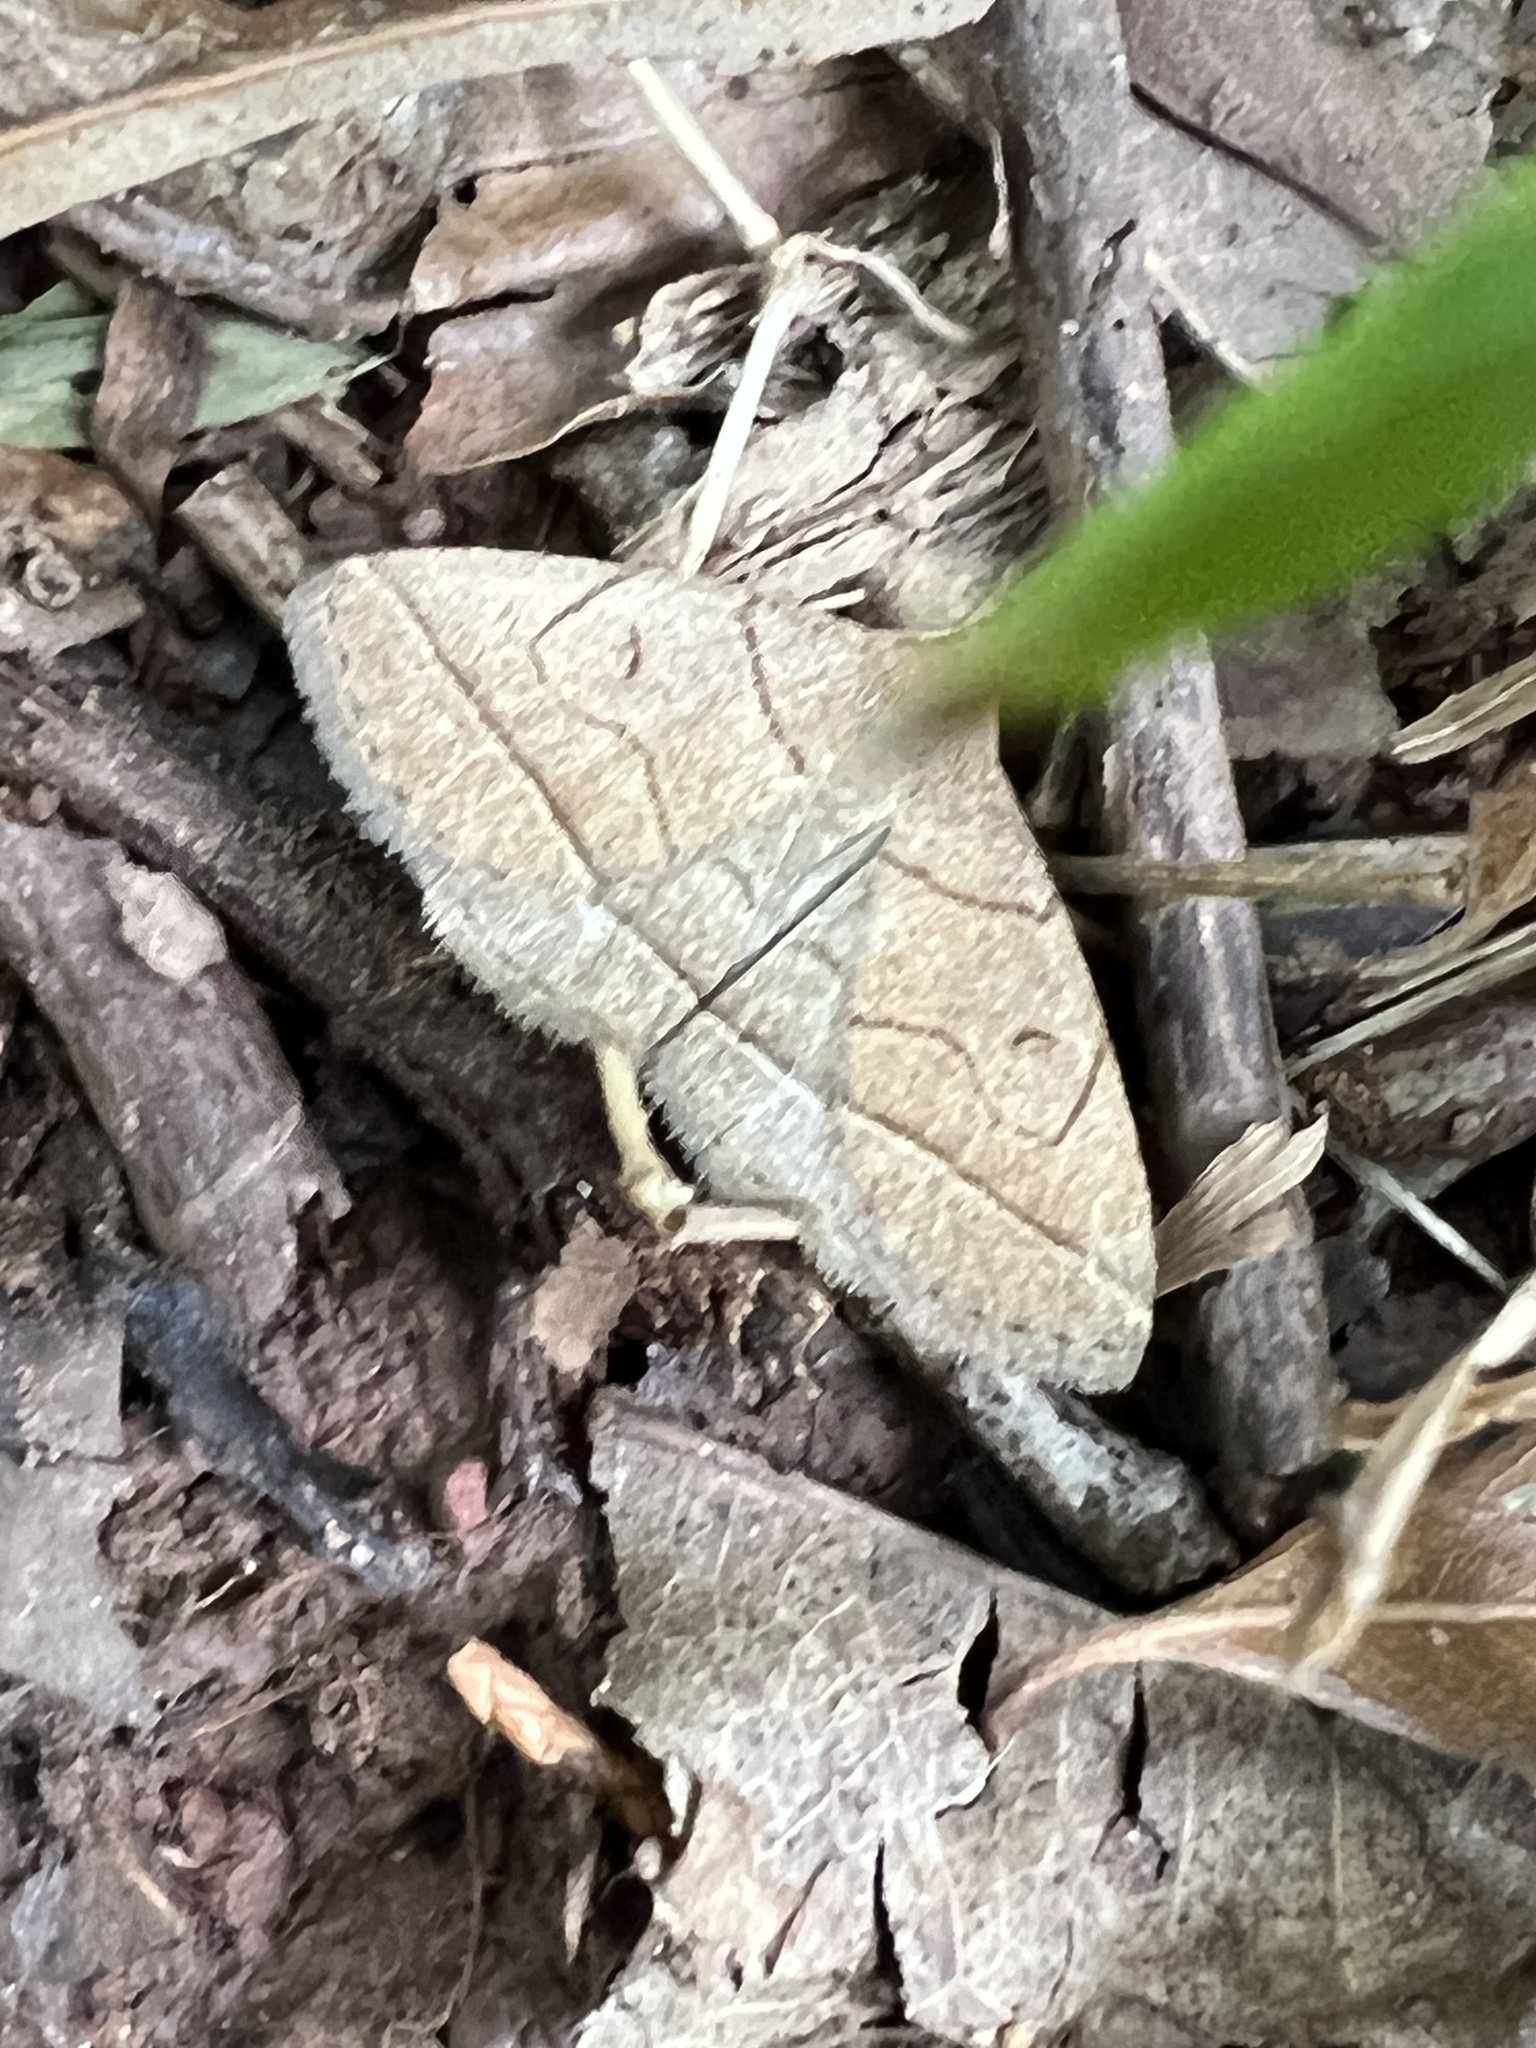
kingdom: Animalia
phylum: Arthropoda
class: Insecta
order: Lepidoptera
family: Erebidae
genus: Zanclognatha
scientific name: Zanclognatha cruralis
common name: Early fan-foot
